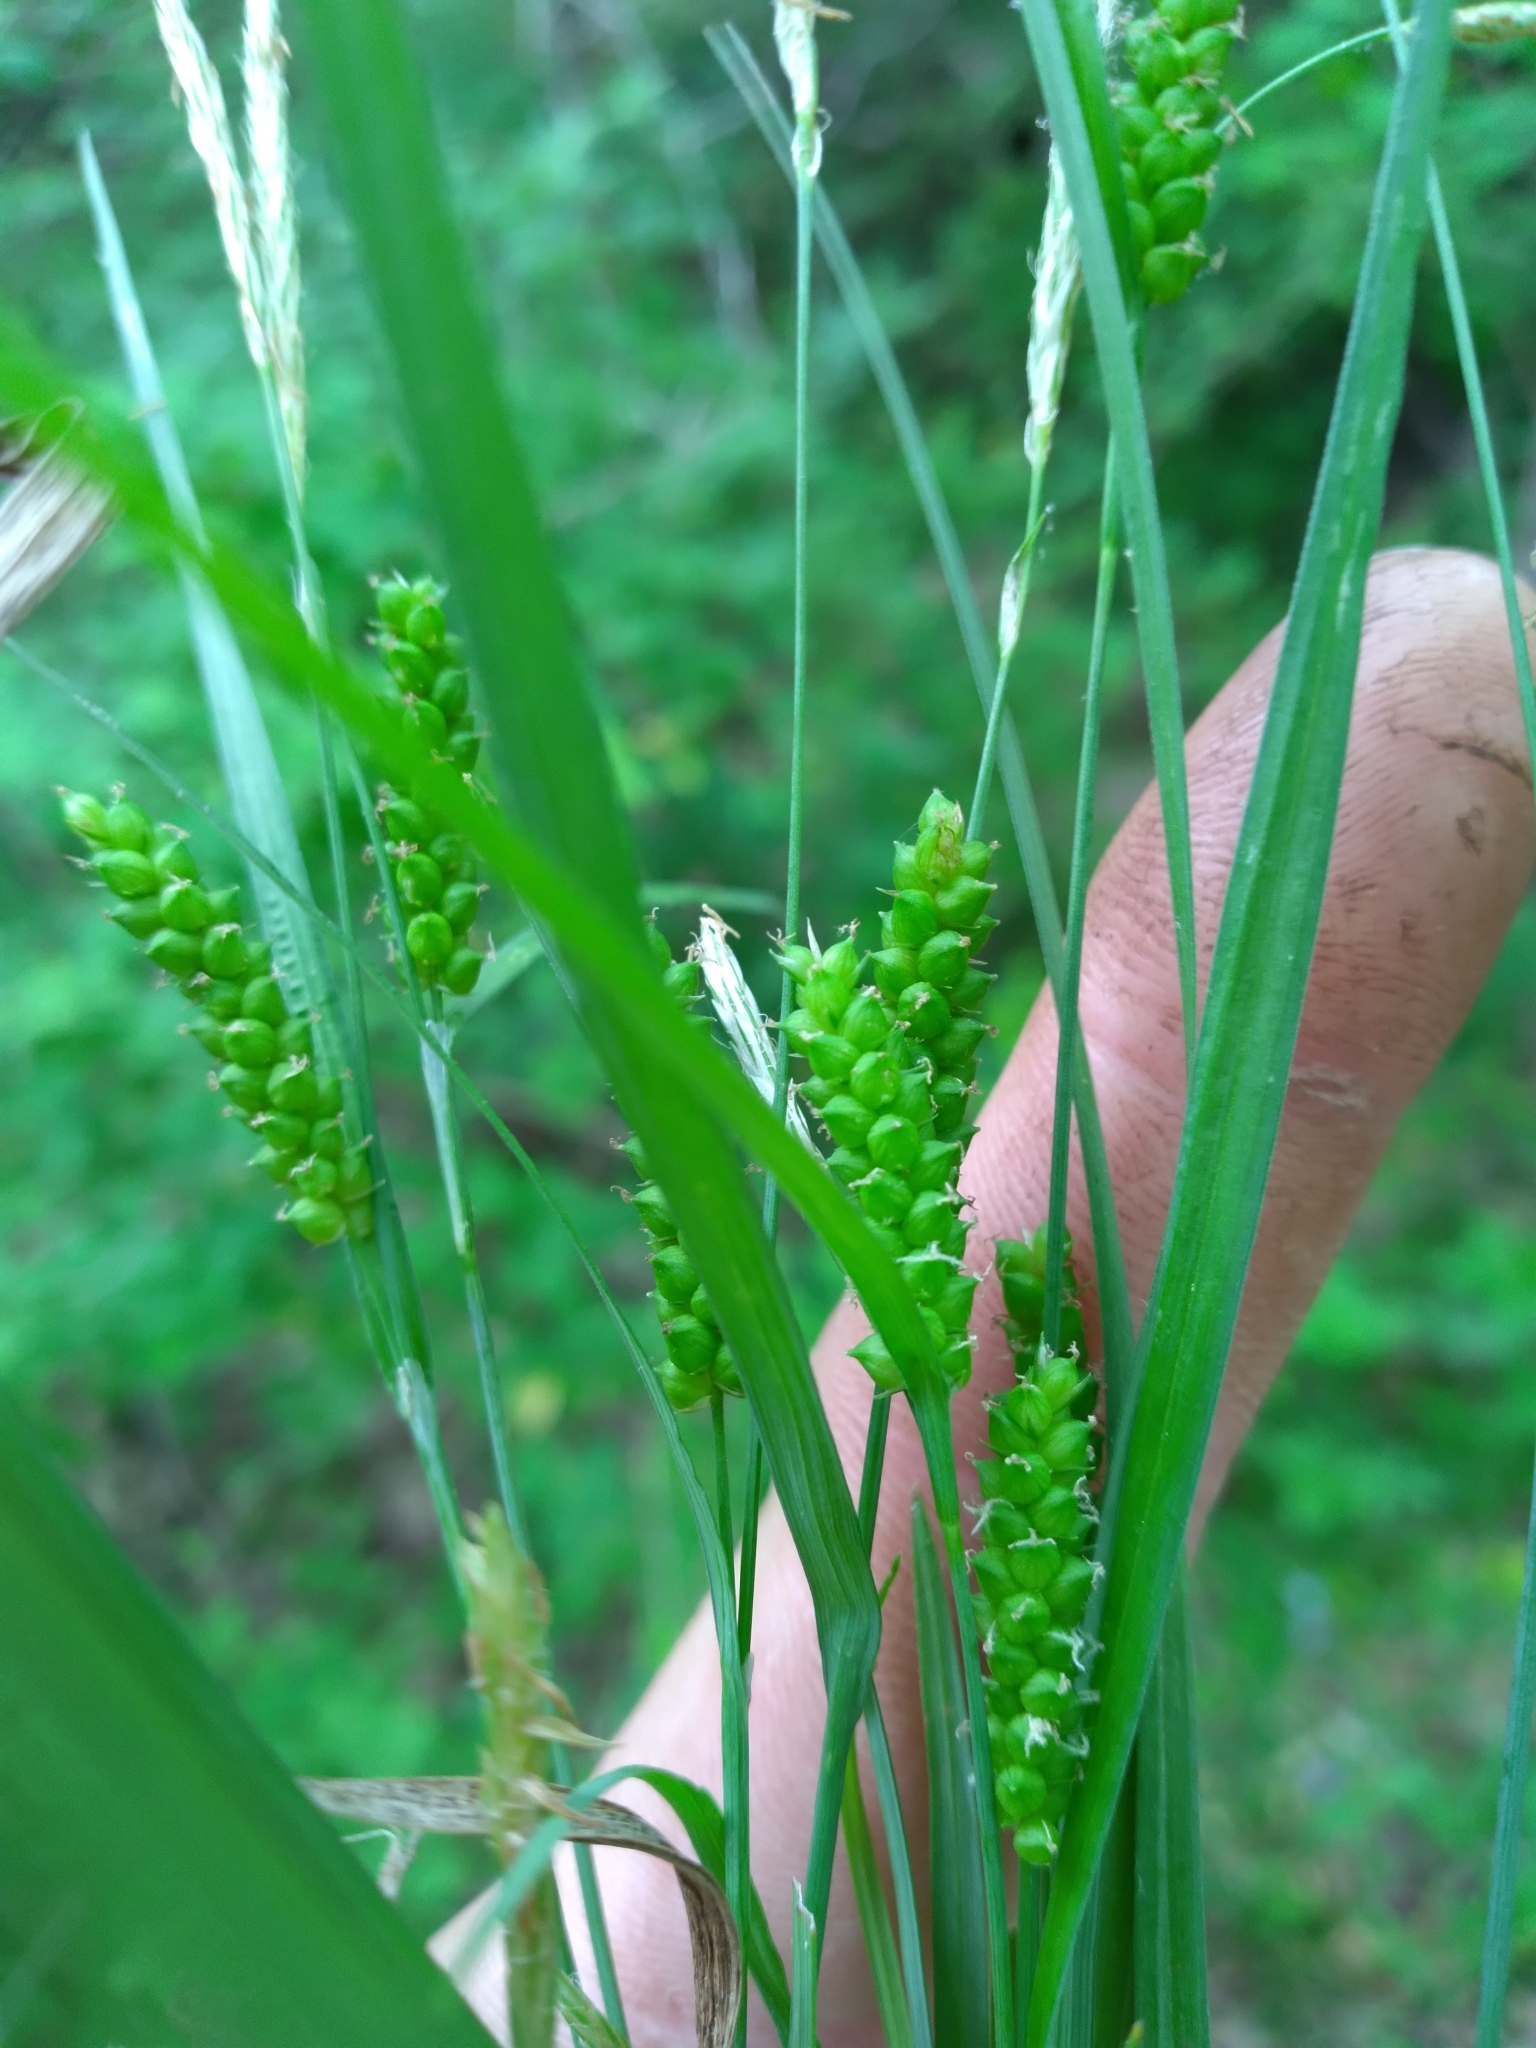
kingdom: Plantae
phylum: Tracheophyta
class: Liliopsida
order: Poales
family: Cyperaceae
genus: Carex
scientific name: Carex granularis
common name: Granular sedge
